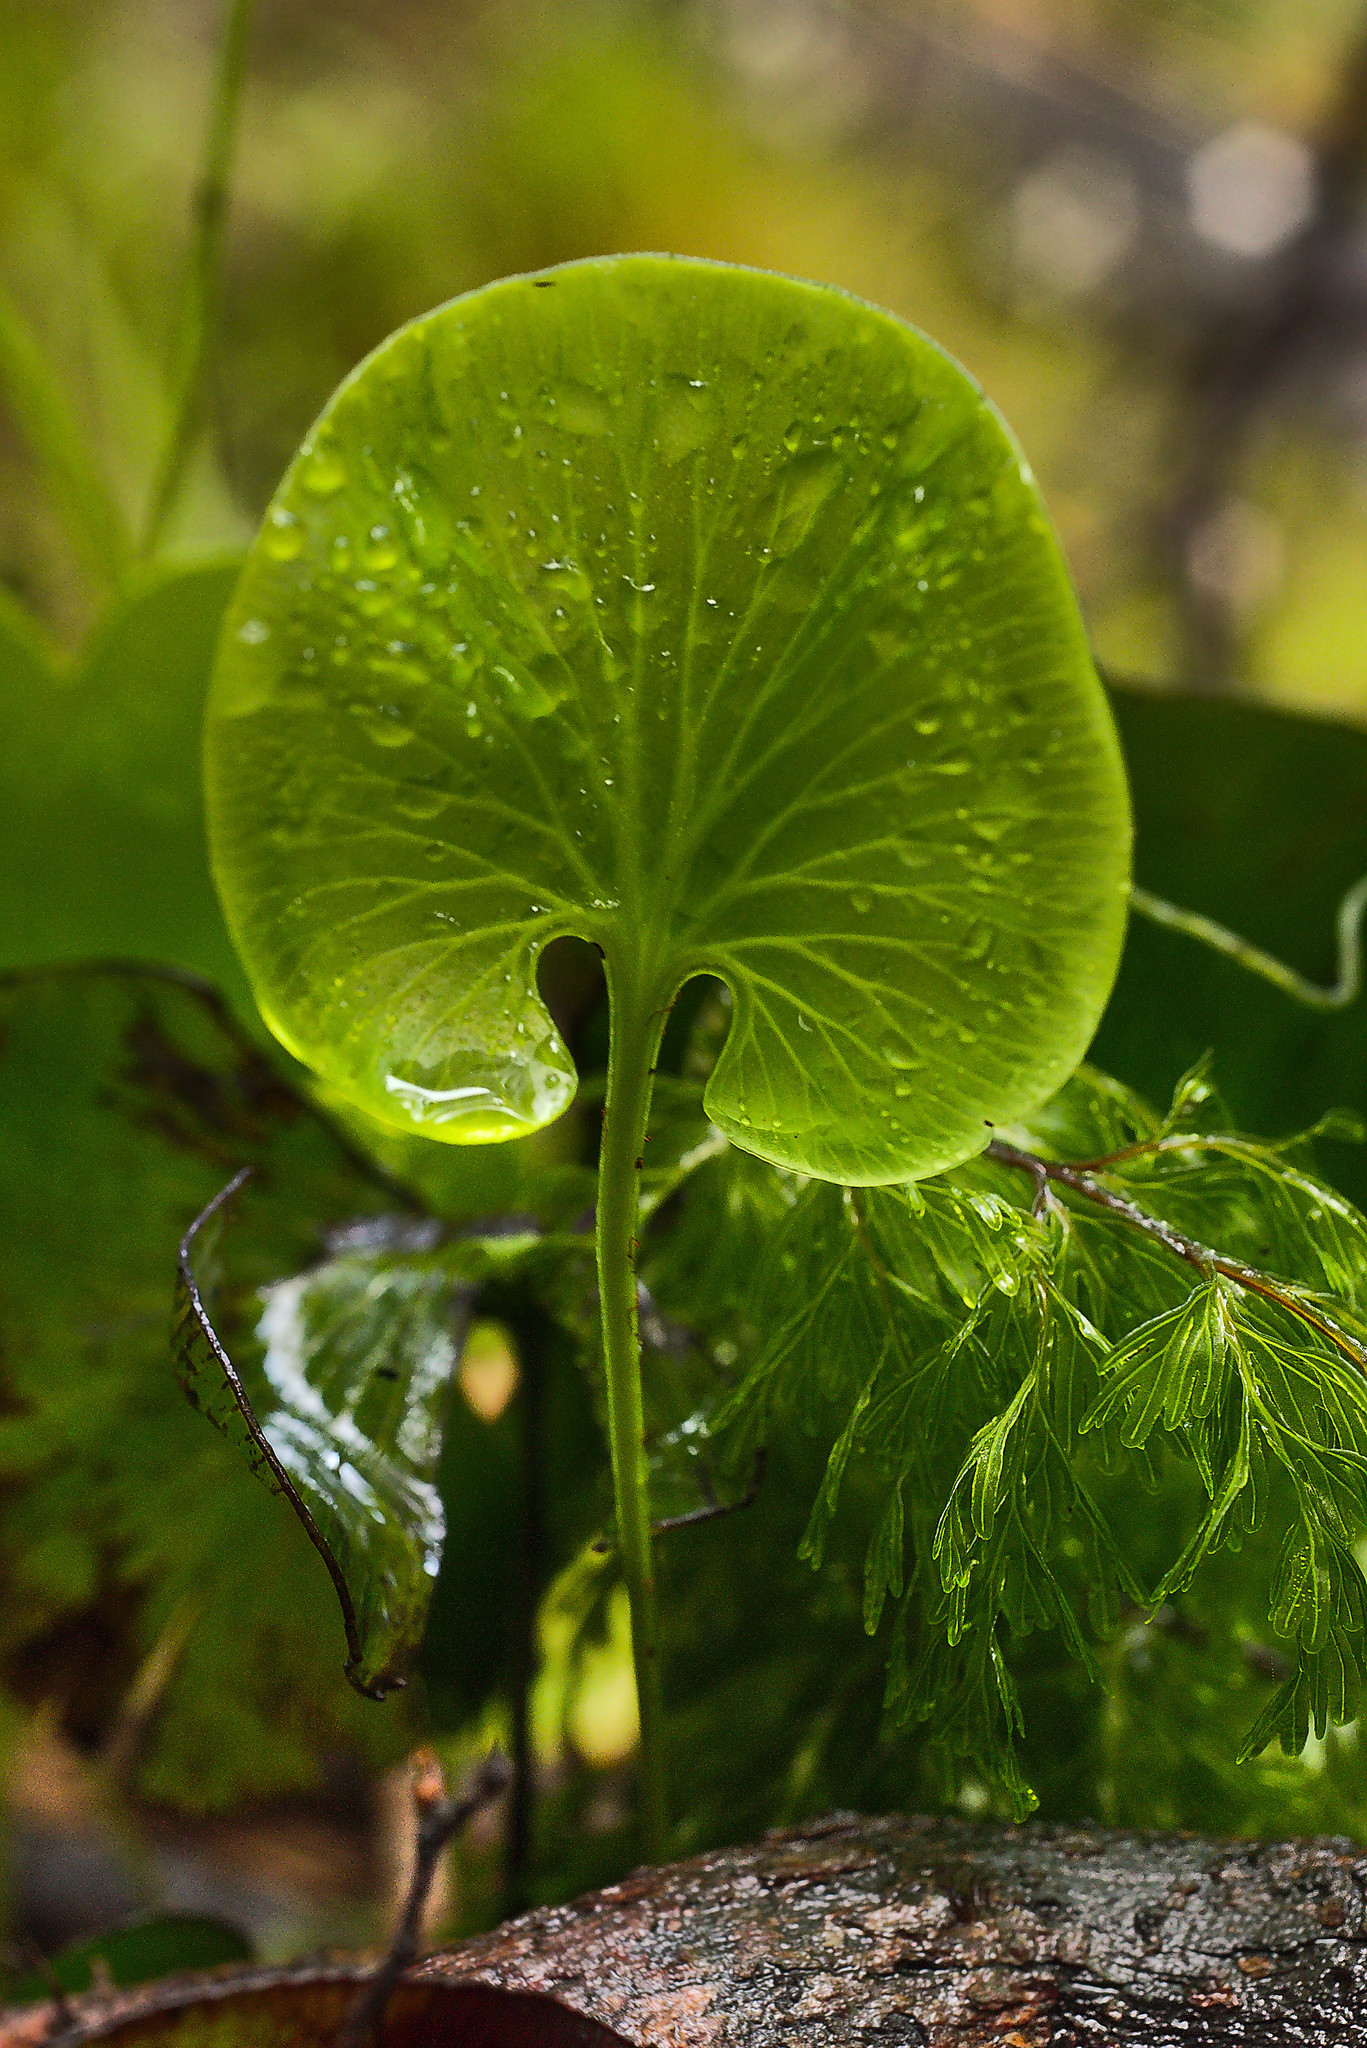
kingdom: Plantae
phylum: Tracheophyta
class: Polypodiopsida
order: Hymenophyllales
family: Hymenophyllaceae
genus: Hymenophyllum
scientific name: Hymenophyllum nephrophyllum
